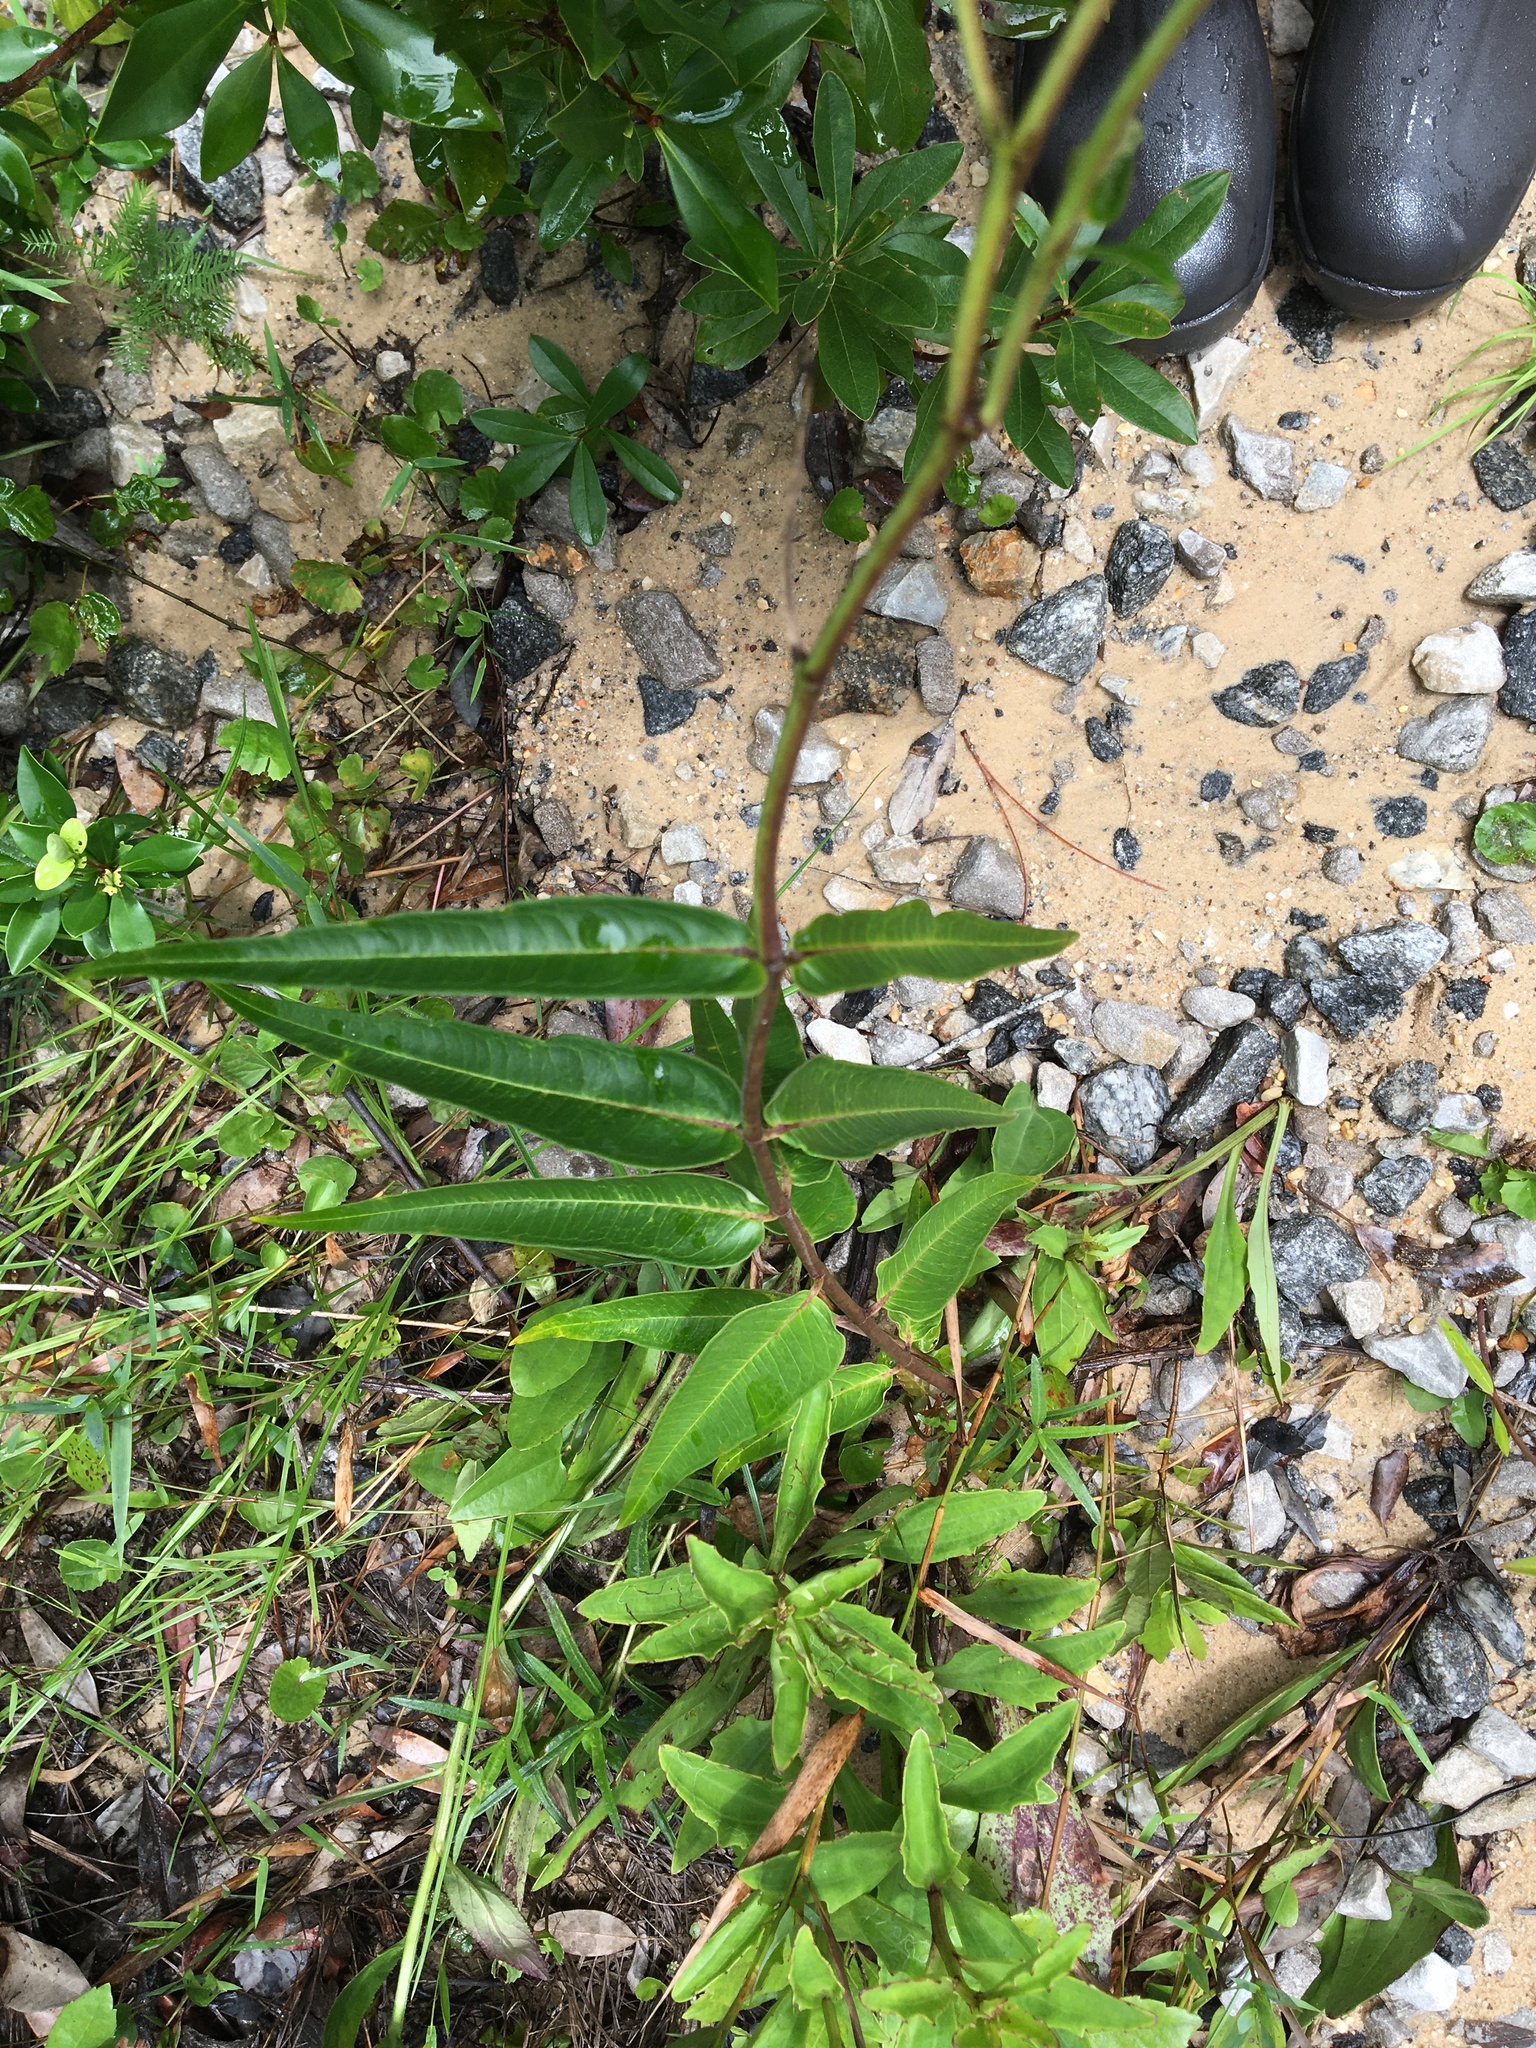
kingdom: Plantae
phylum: Tracheophyta
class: Magnoliopsida
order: Gentianales
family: Apocynaceae
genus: Asclepias
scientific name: Asclepias rubra
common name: Red milkweed
